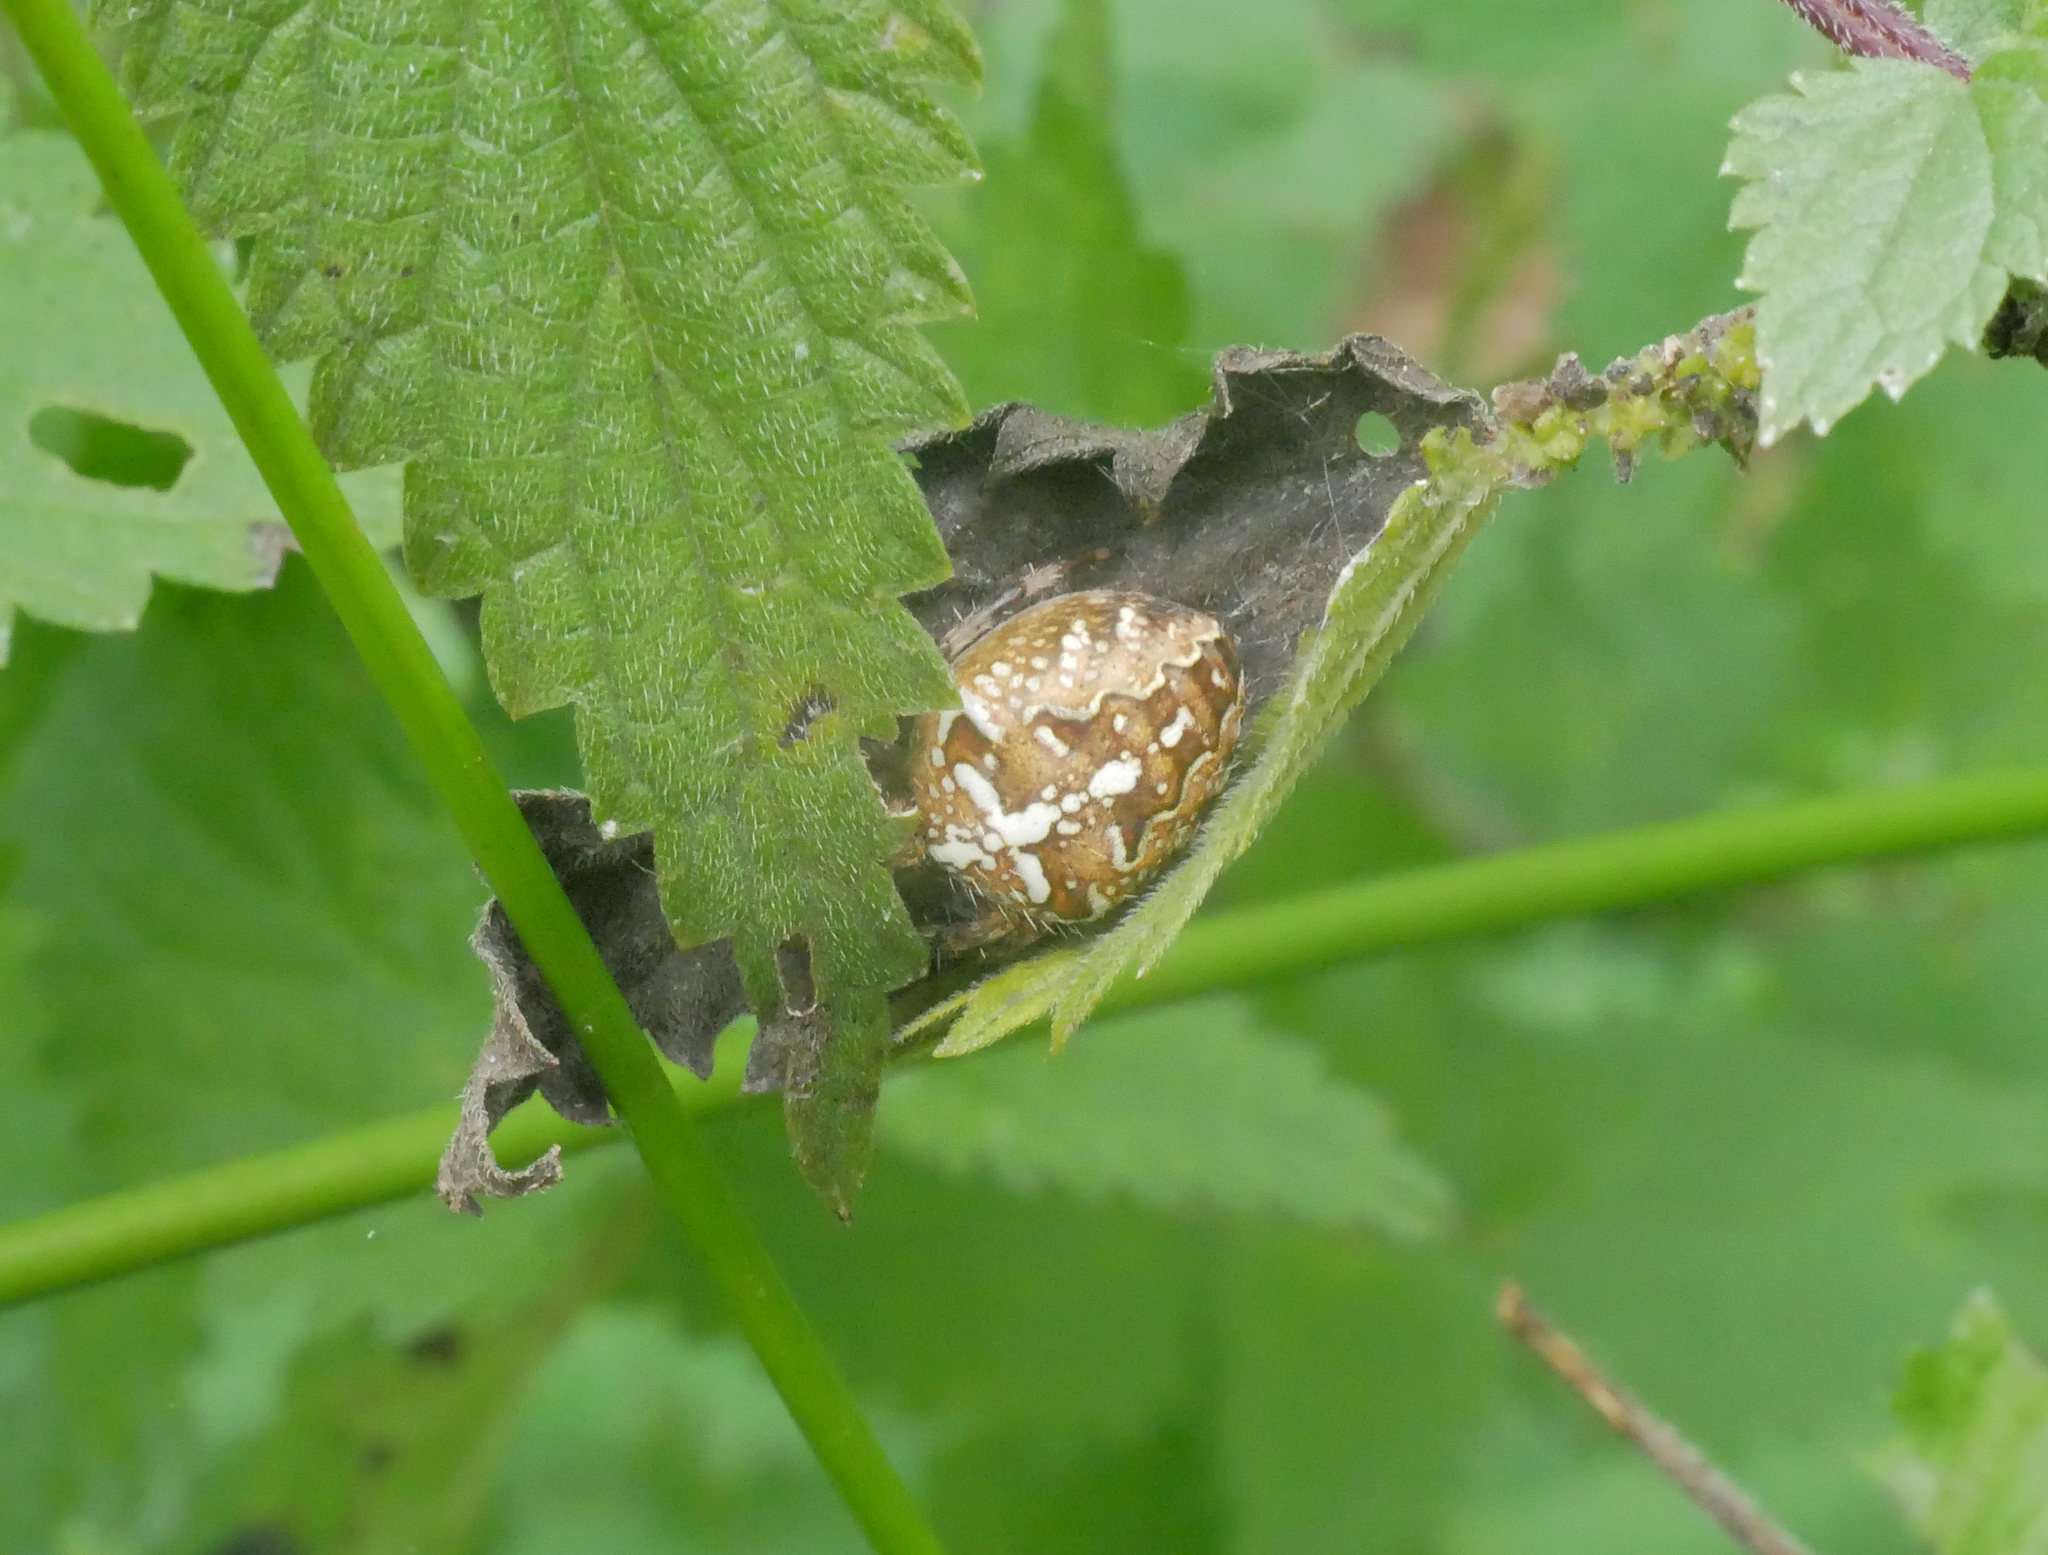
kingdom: Animalia
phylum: Arthropoda
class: Arachnida
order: Araneae
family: Araneidae
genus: Araneus
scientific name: Araneus diadematus
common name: Cross orbweaver
